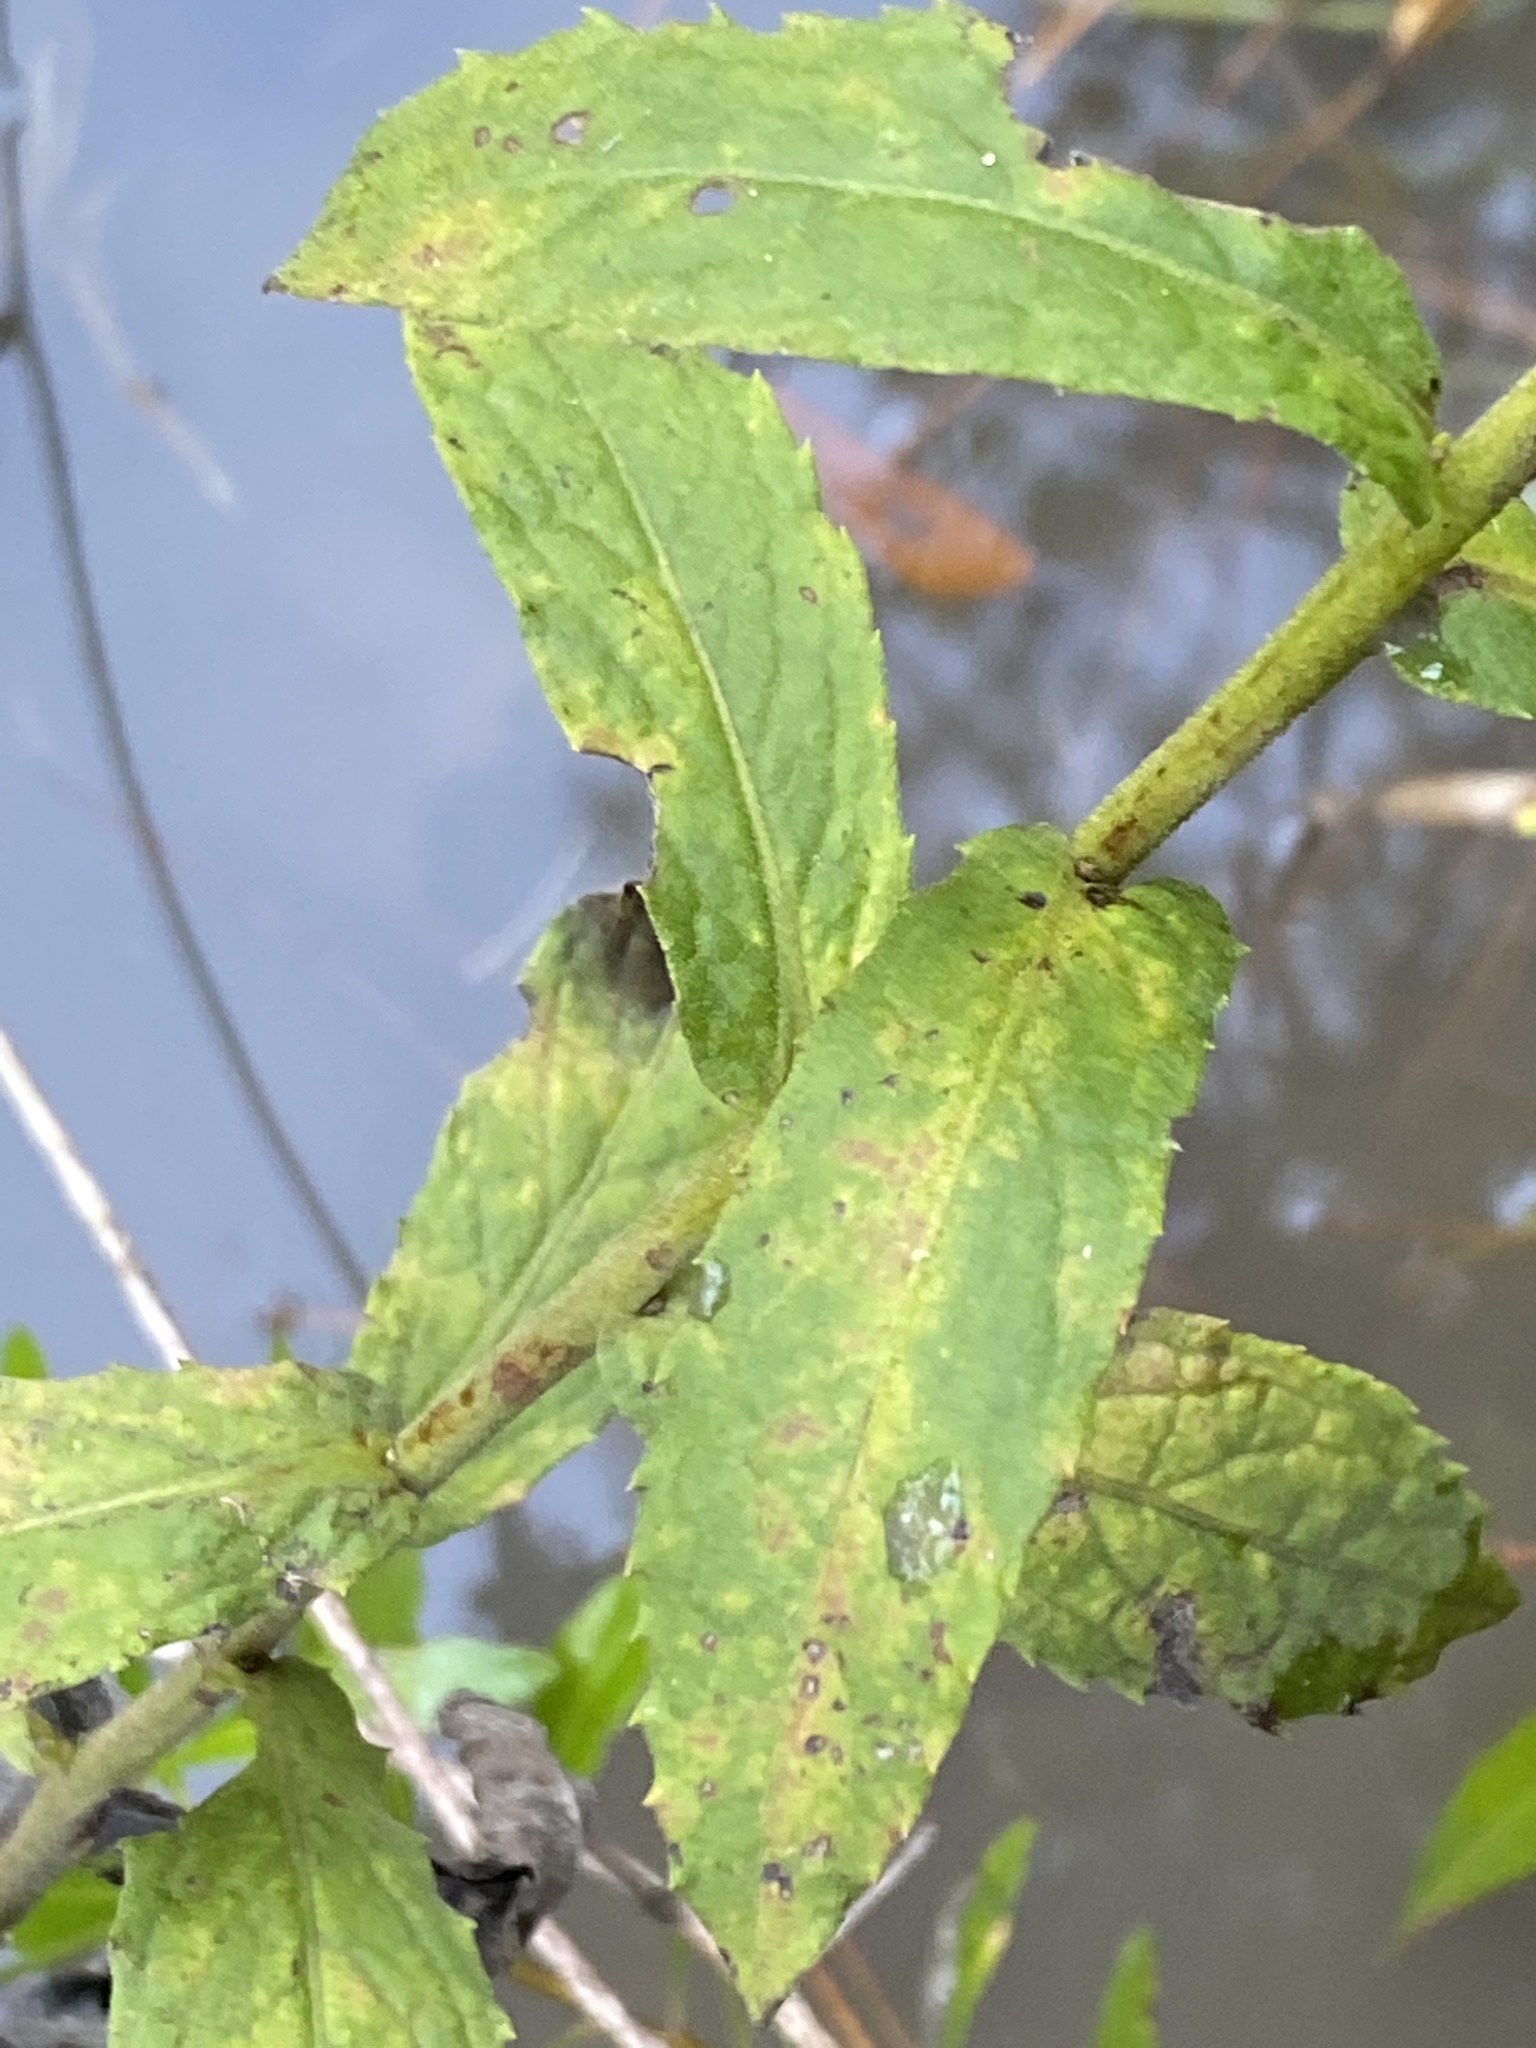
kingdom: Plantae
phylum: Tracheophyta
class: Magnoliopsida
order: Asterales
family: Asteraceae
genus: Pluchea
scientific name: Pluchea foetida
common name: Stinking camphorweed
